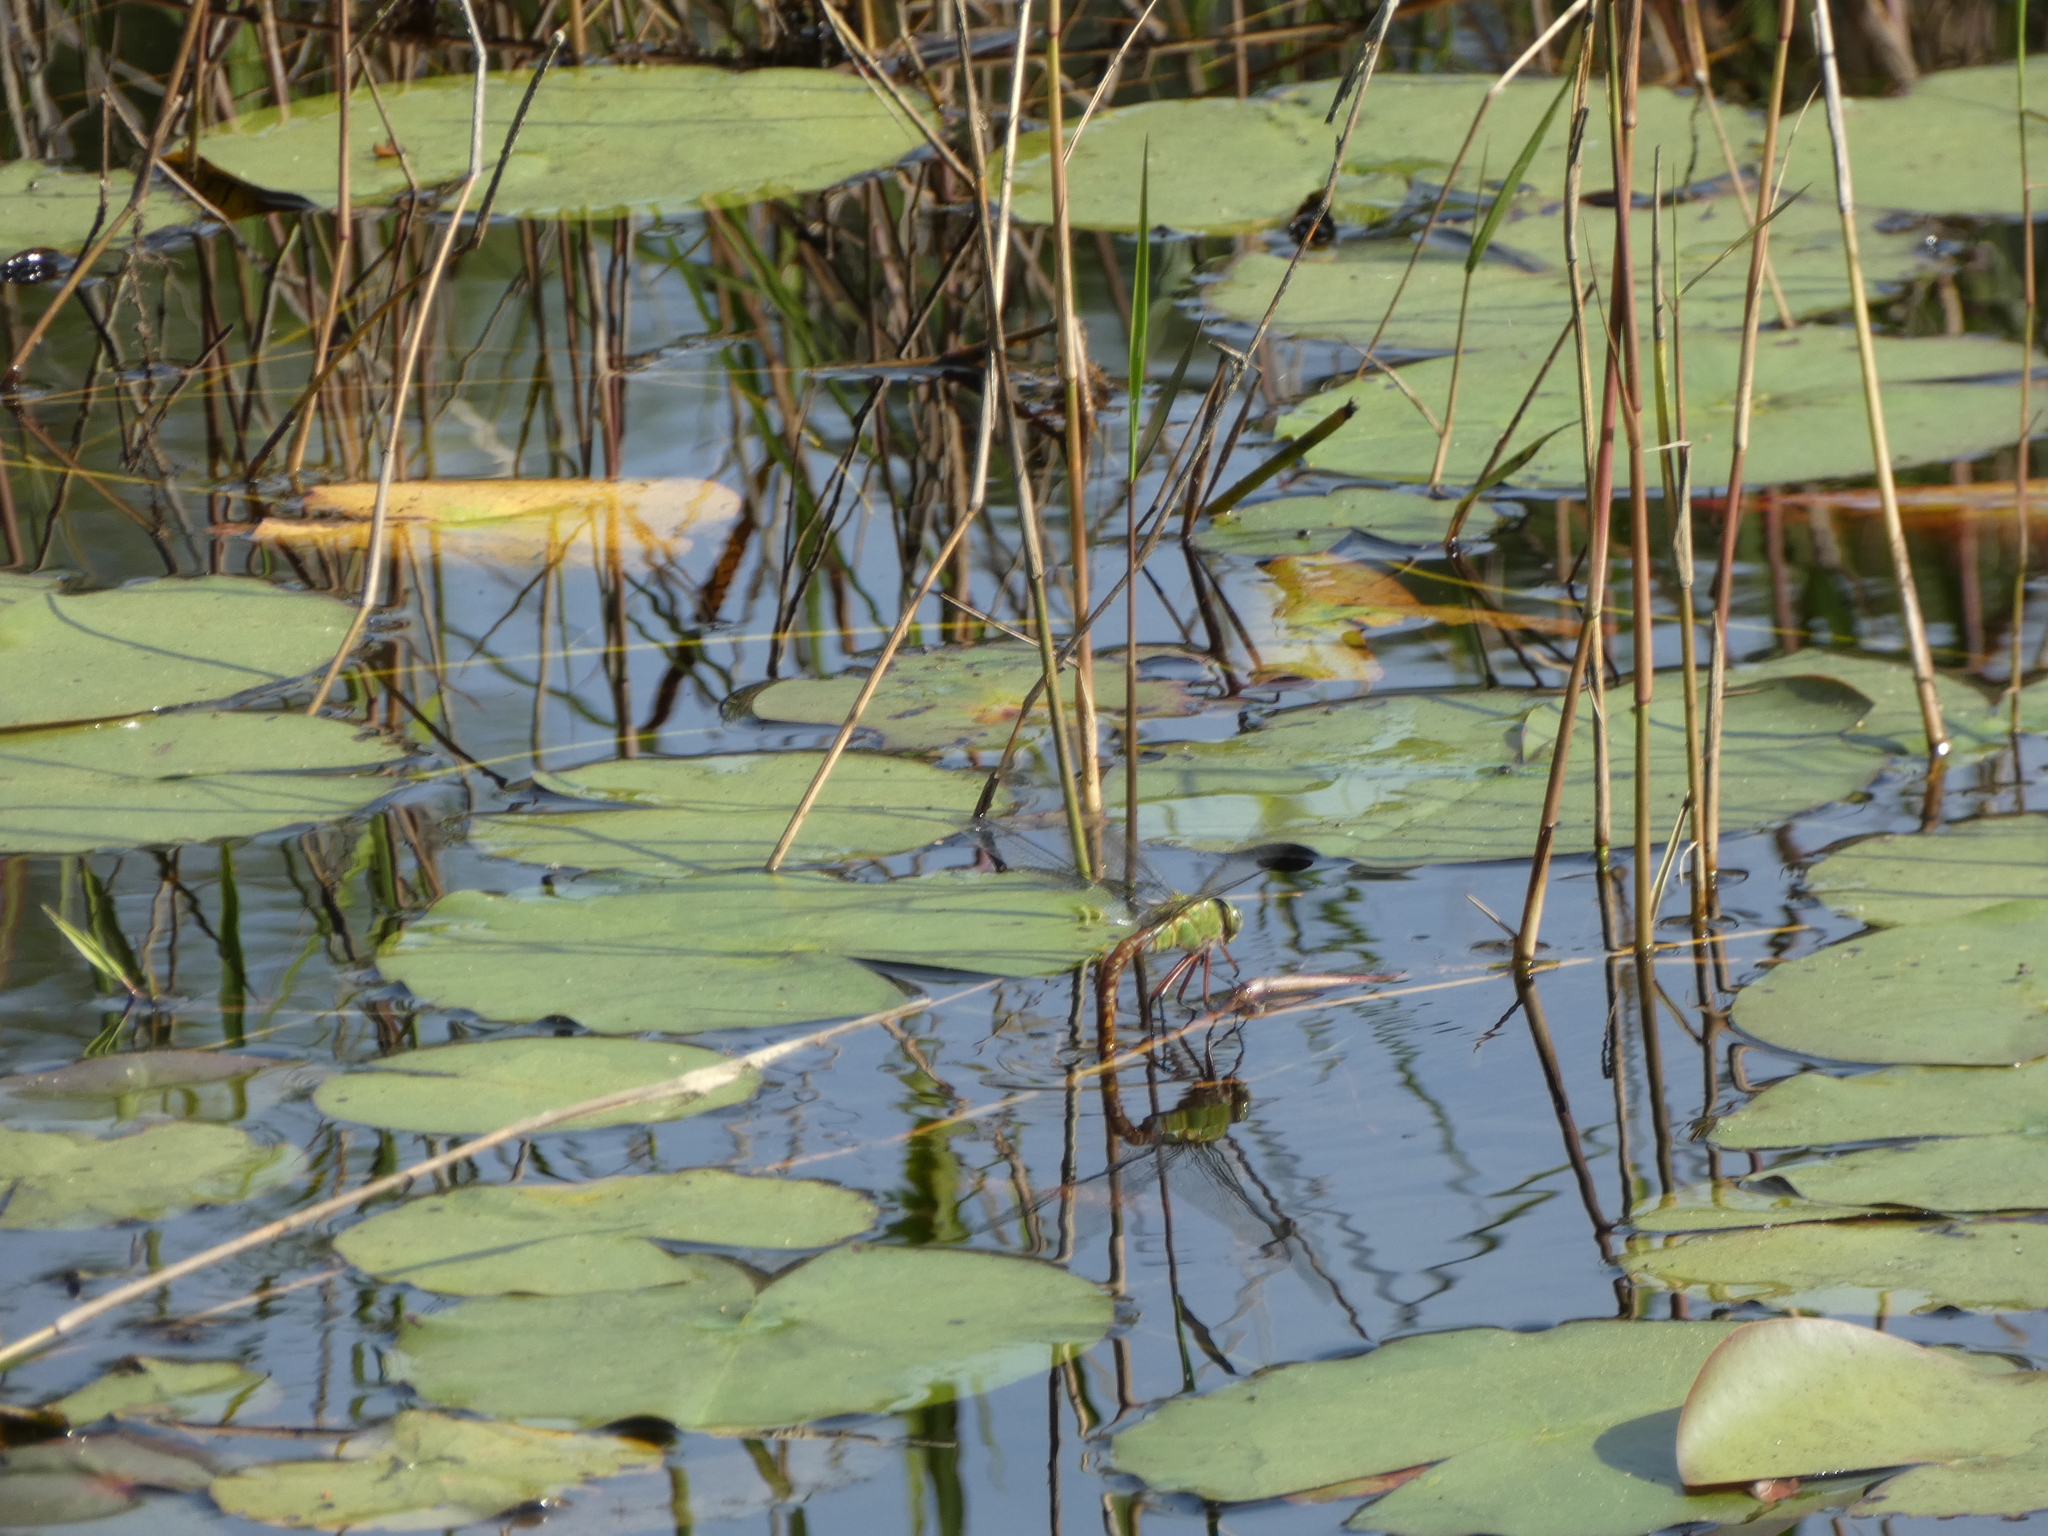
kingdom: Animalia
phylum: Arthropoda
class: Insecta
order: Odonata
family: Aeshnidae
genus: Anax
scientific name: Anax longipes
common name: Comet darner
